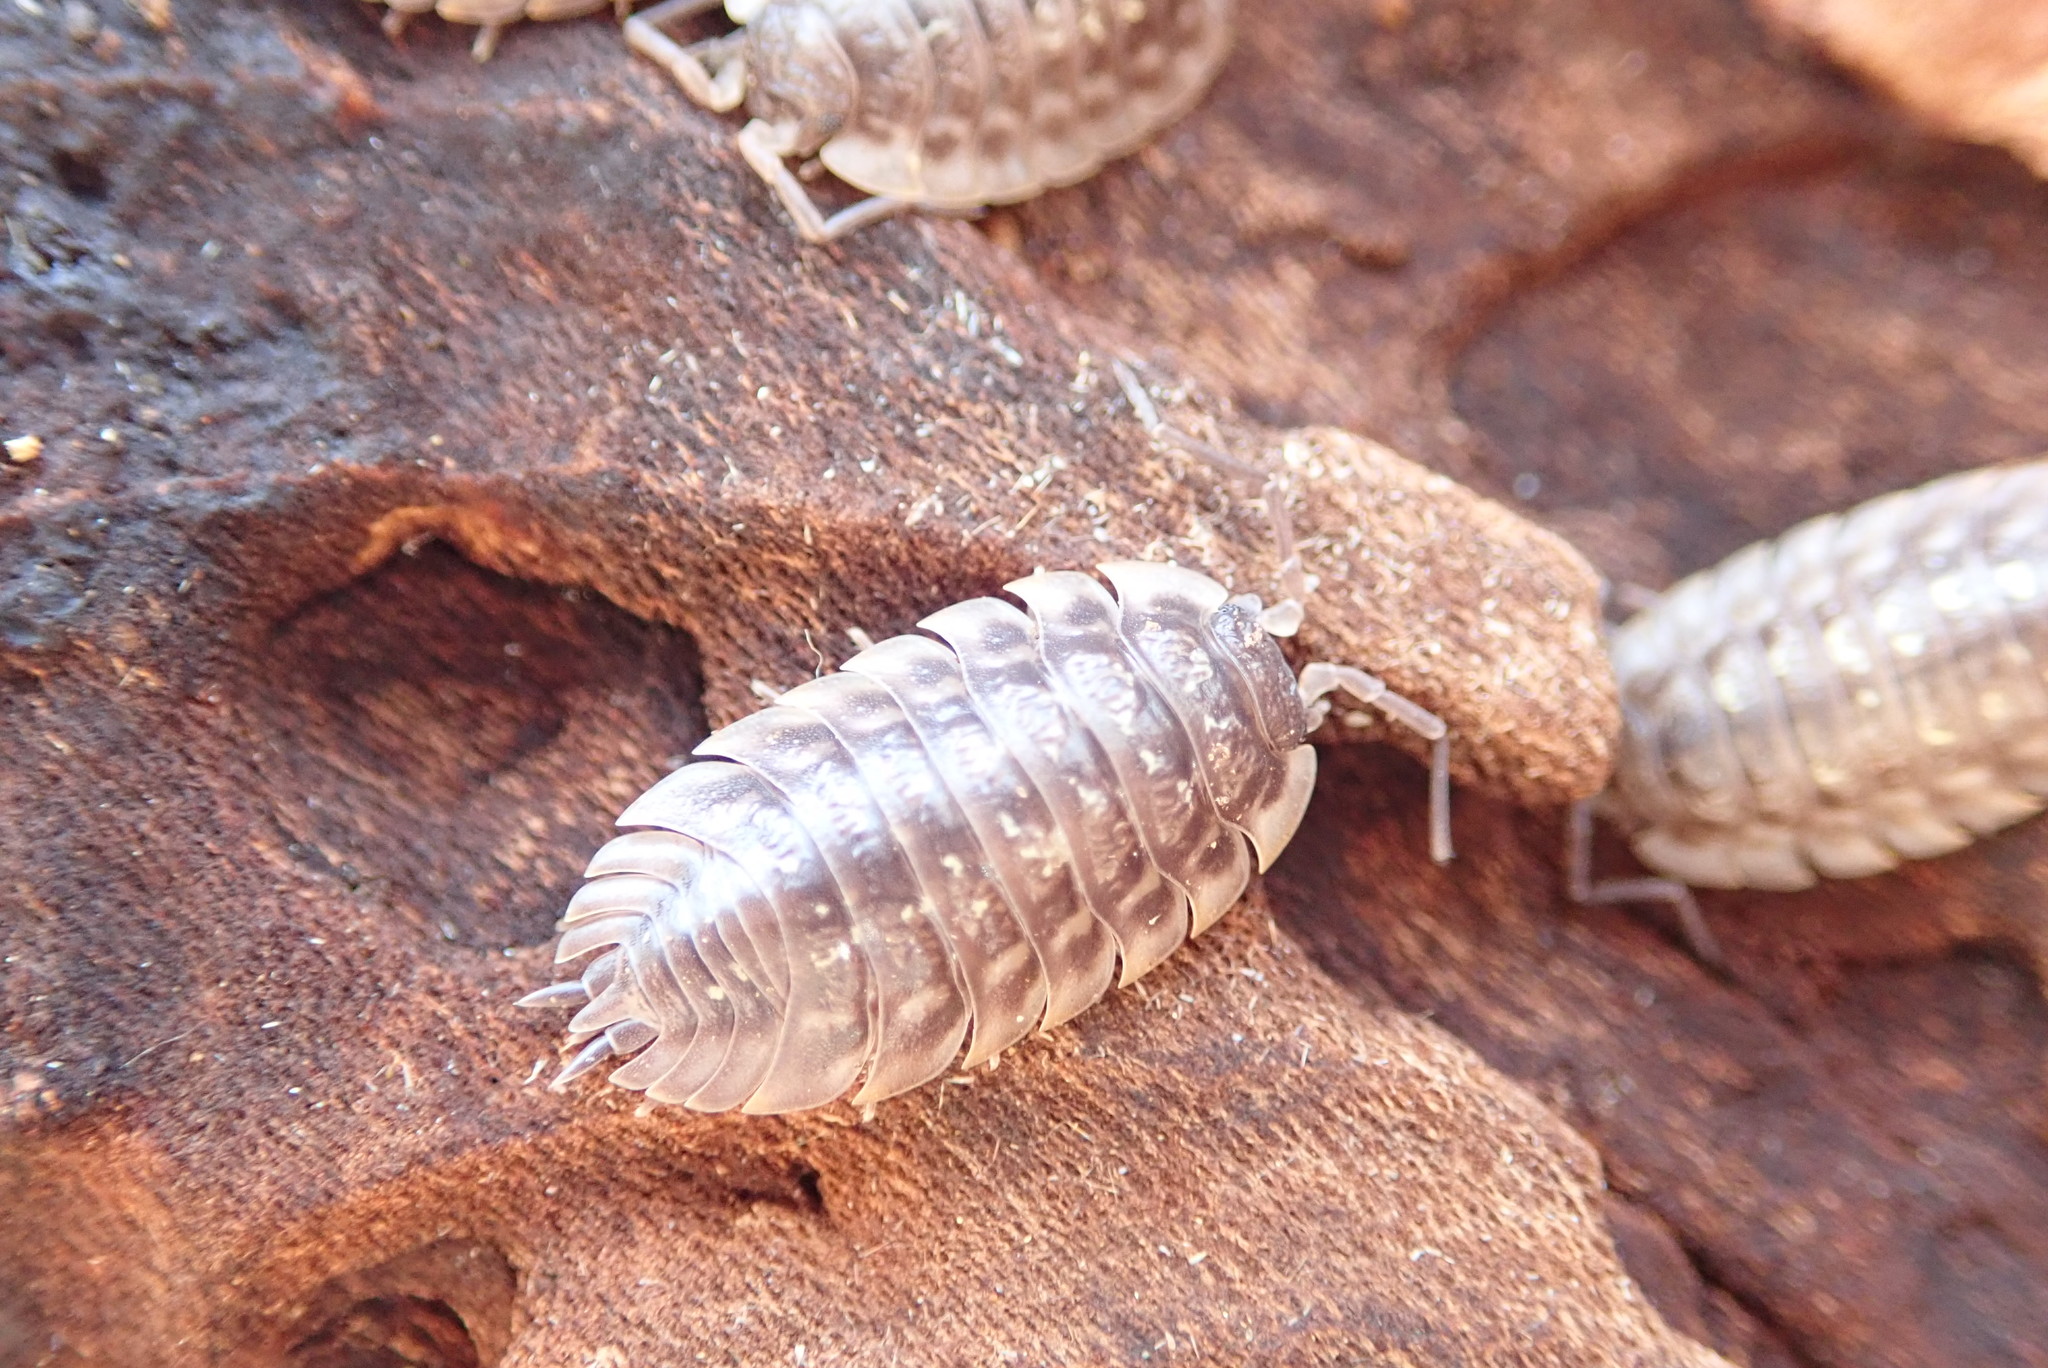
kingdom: Animalia
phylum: Arthropoda
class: Malacostraca
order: Isopoda
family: Oniscidae
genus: Oniscus
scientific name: Oniscus asellus
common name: Common shiny woodlouse
